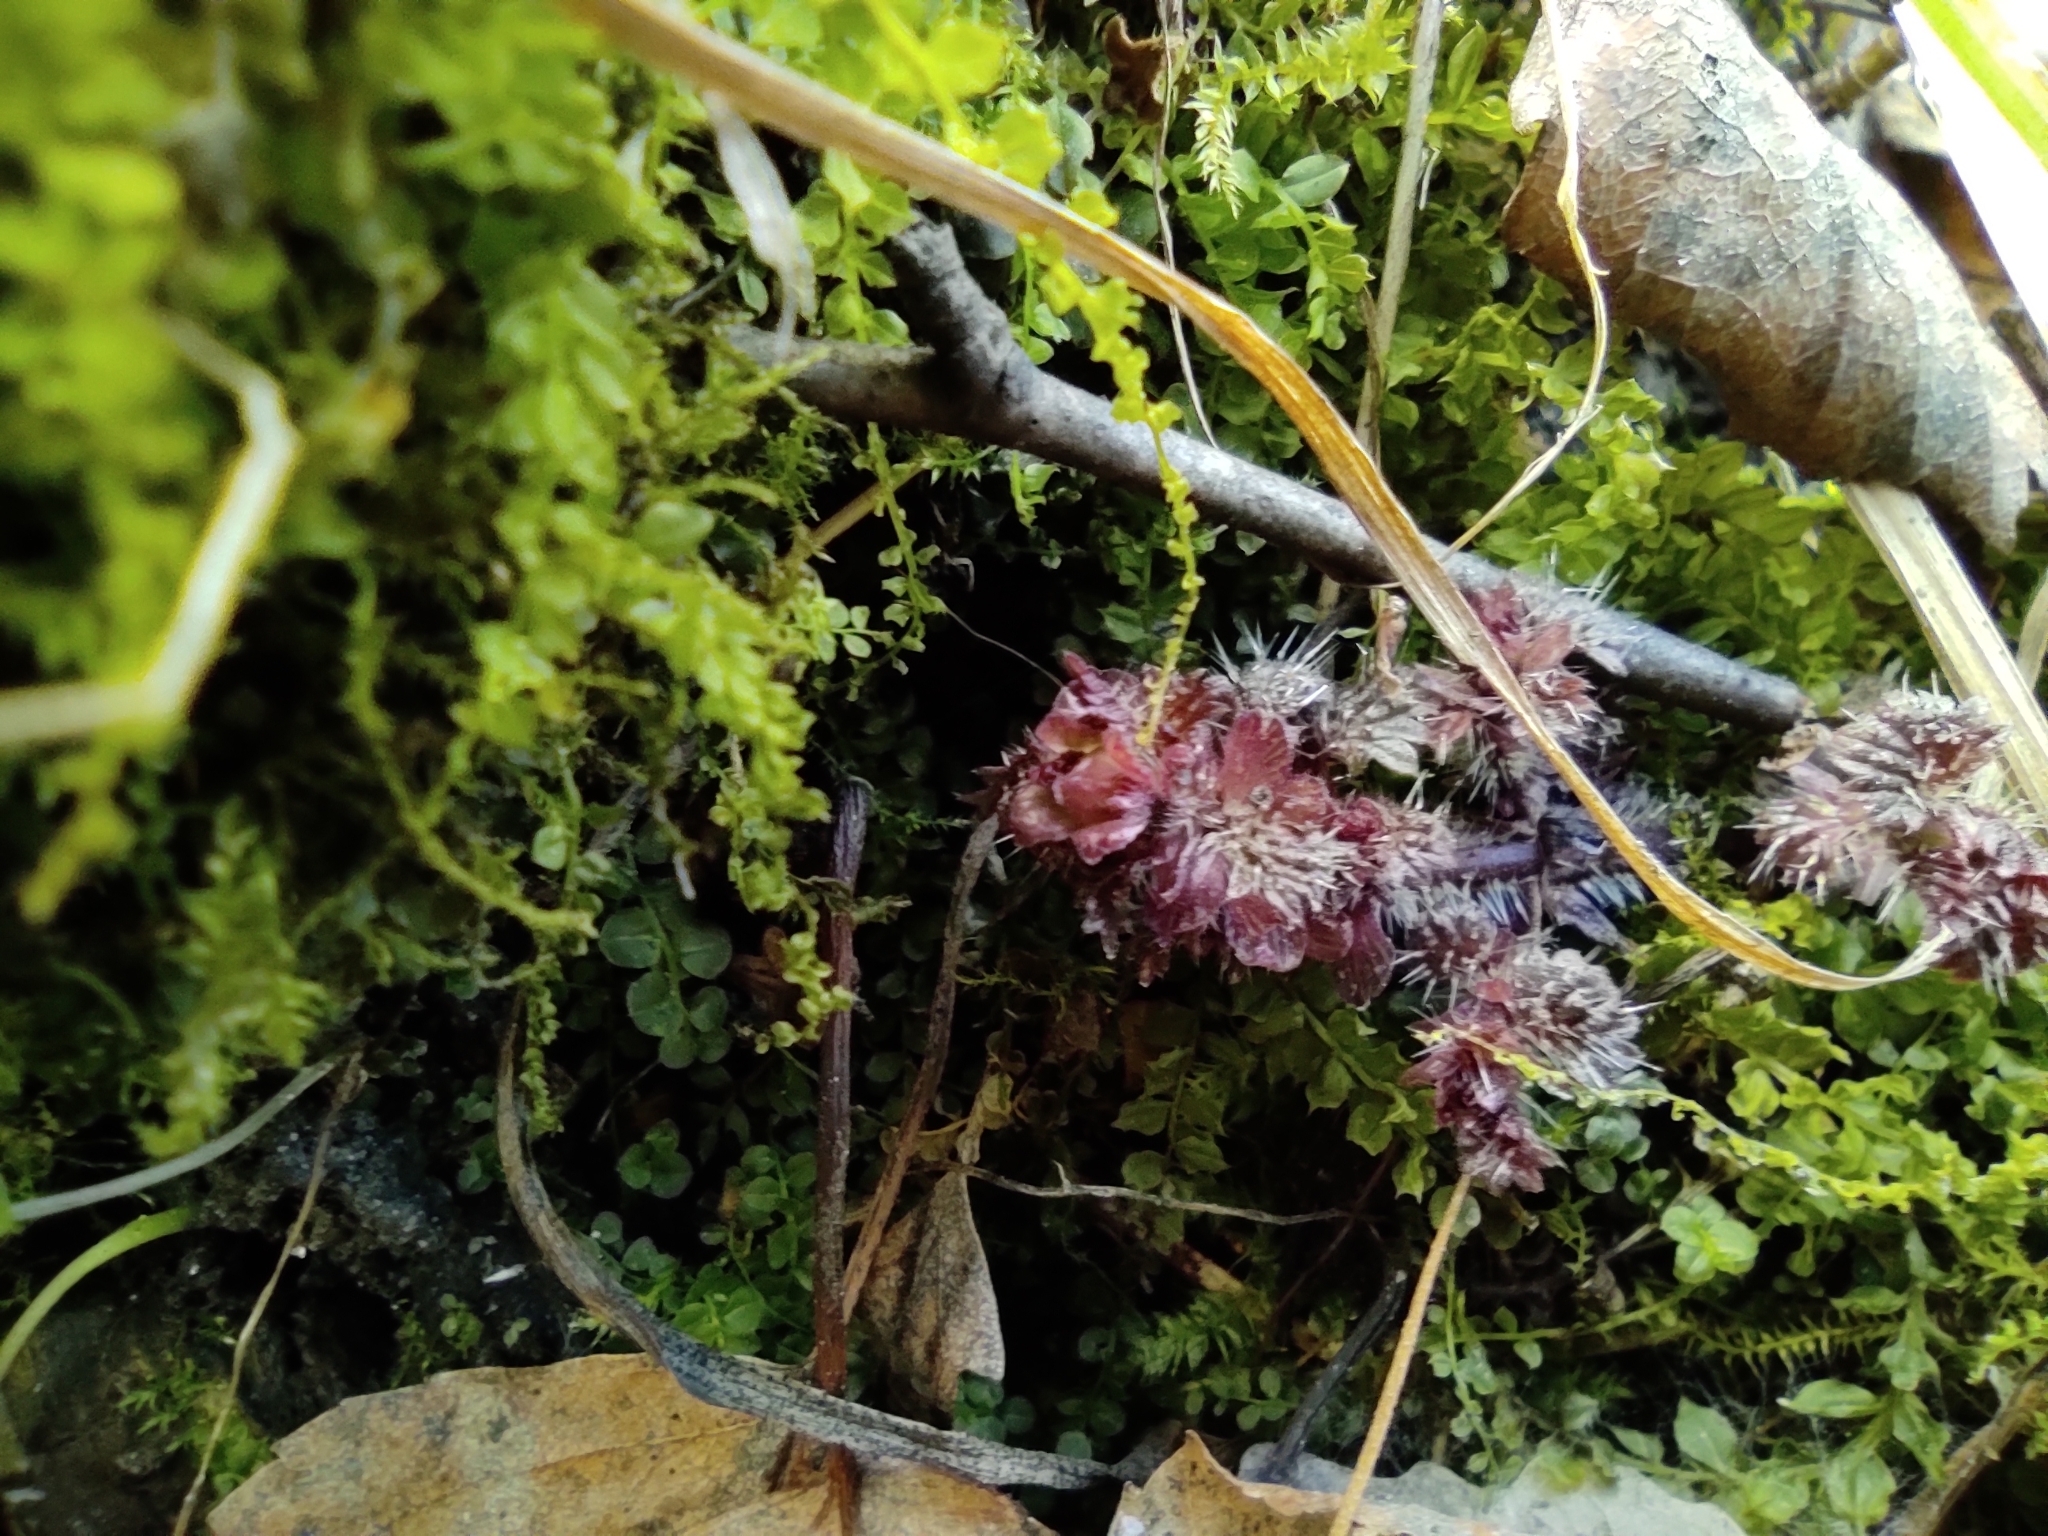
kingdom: Plantae
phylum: Tracheophyta
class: Magnoliopsida
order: Rosales
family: Urticaceae
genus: Urtica
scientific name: Urtica dioica
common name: Common nettle
